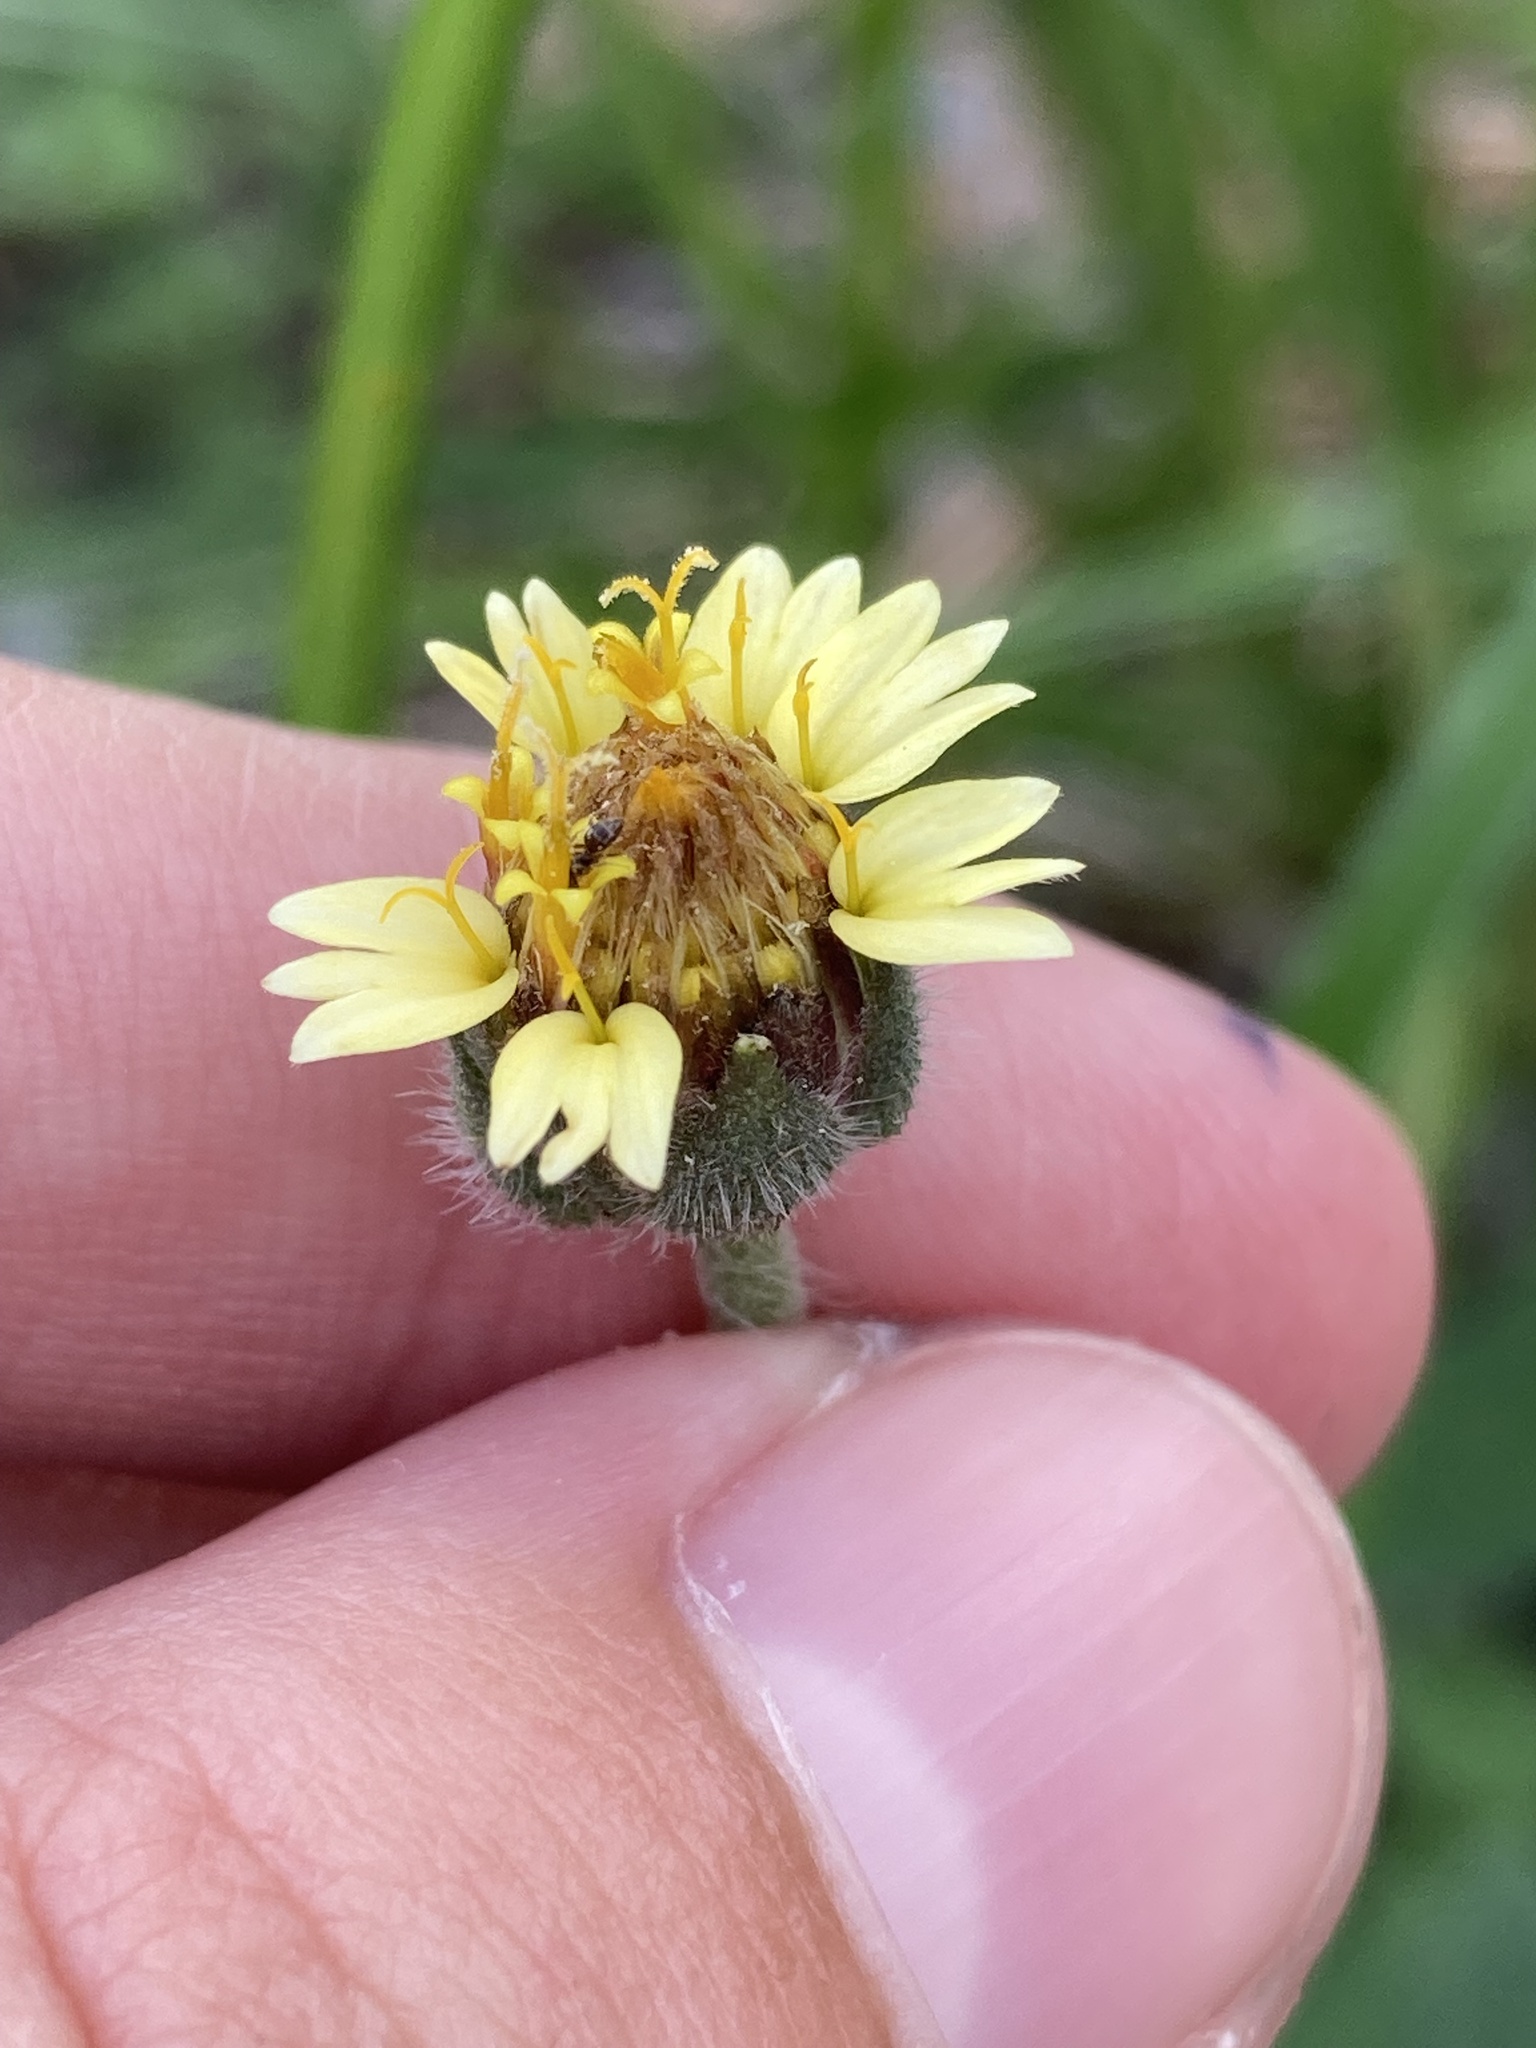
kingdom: Plantae
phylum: Tracheophyta
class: Magnoliopsida
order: Asterales
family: Asteraceae
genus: Tridax
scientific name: Tridax procumbens
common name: Coatbuttons
